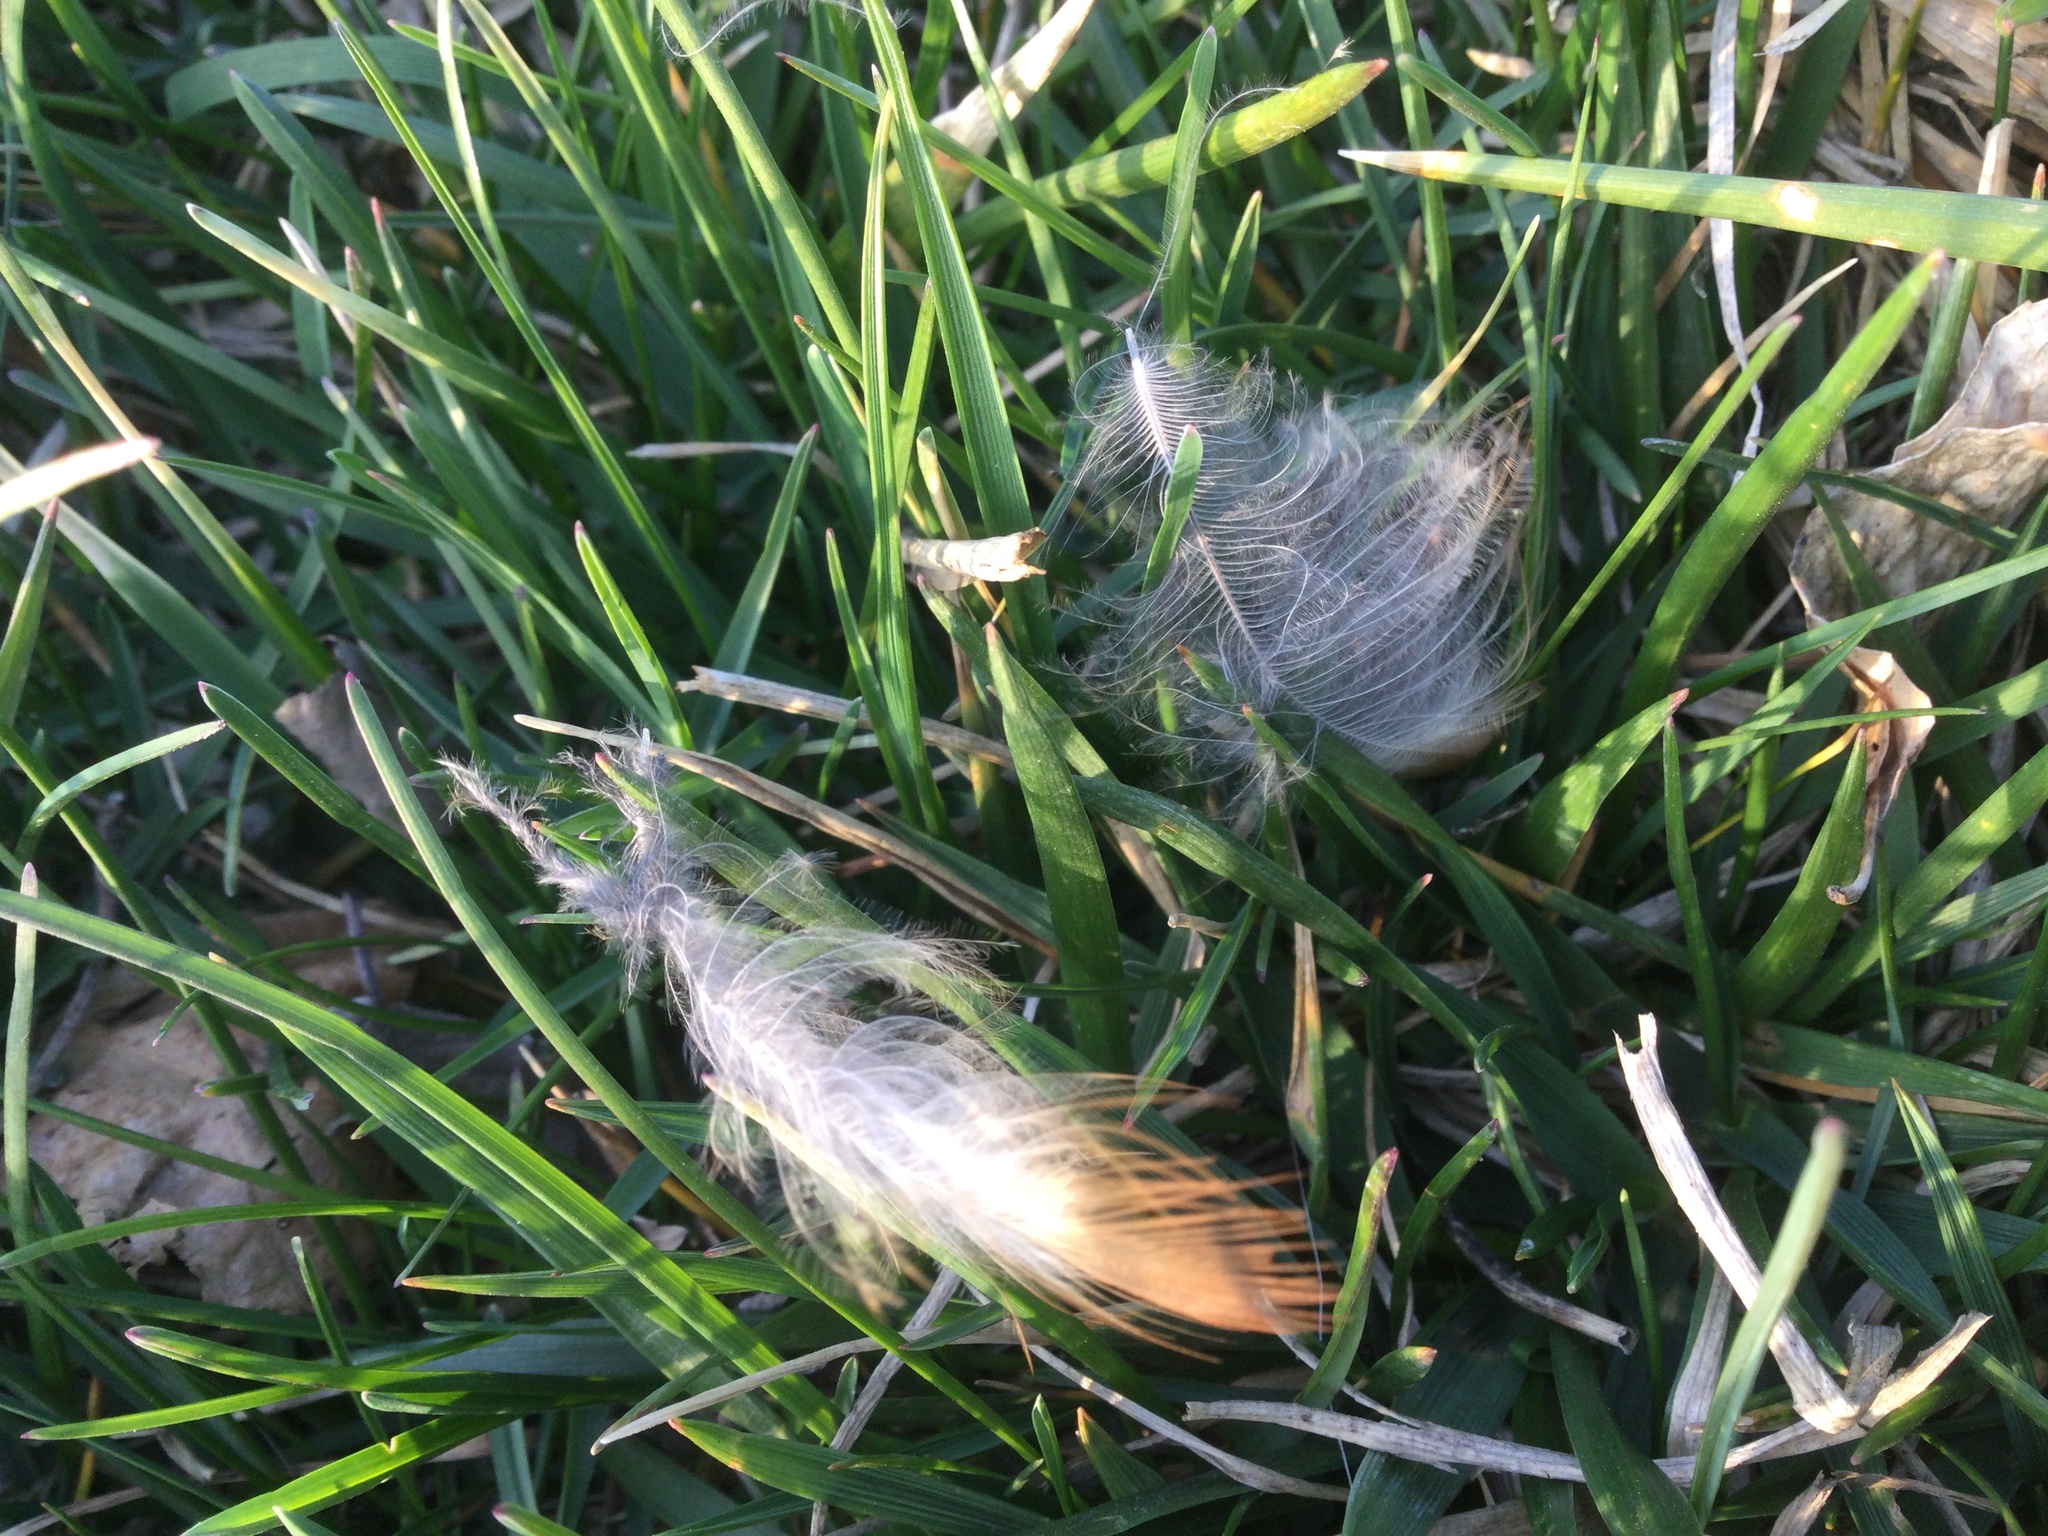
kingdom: Animalia
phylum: Chordata
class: Aves
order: Passeriformes
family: Turdidae
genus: Turdus
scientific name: Turdus migratorius
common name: American robin
